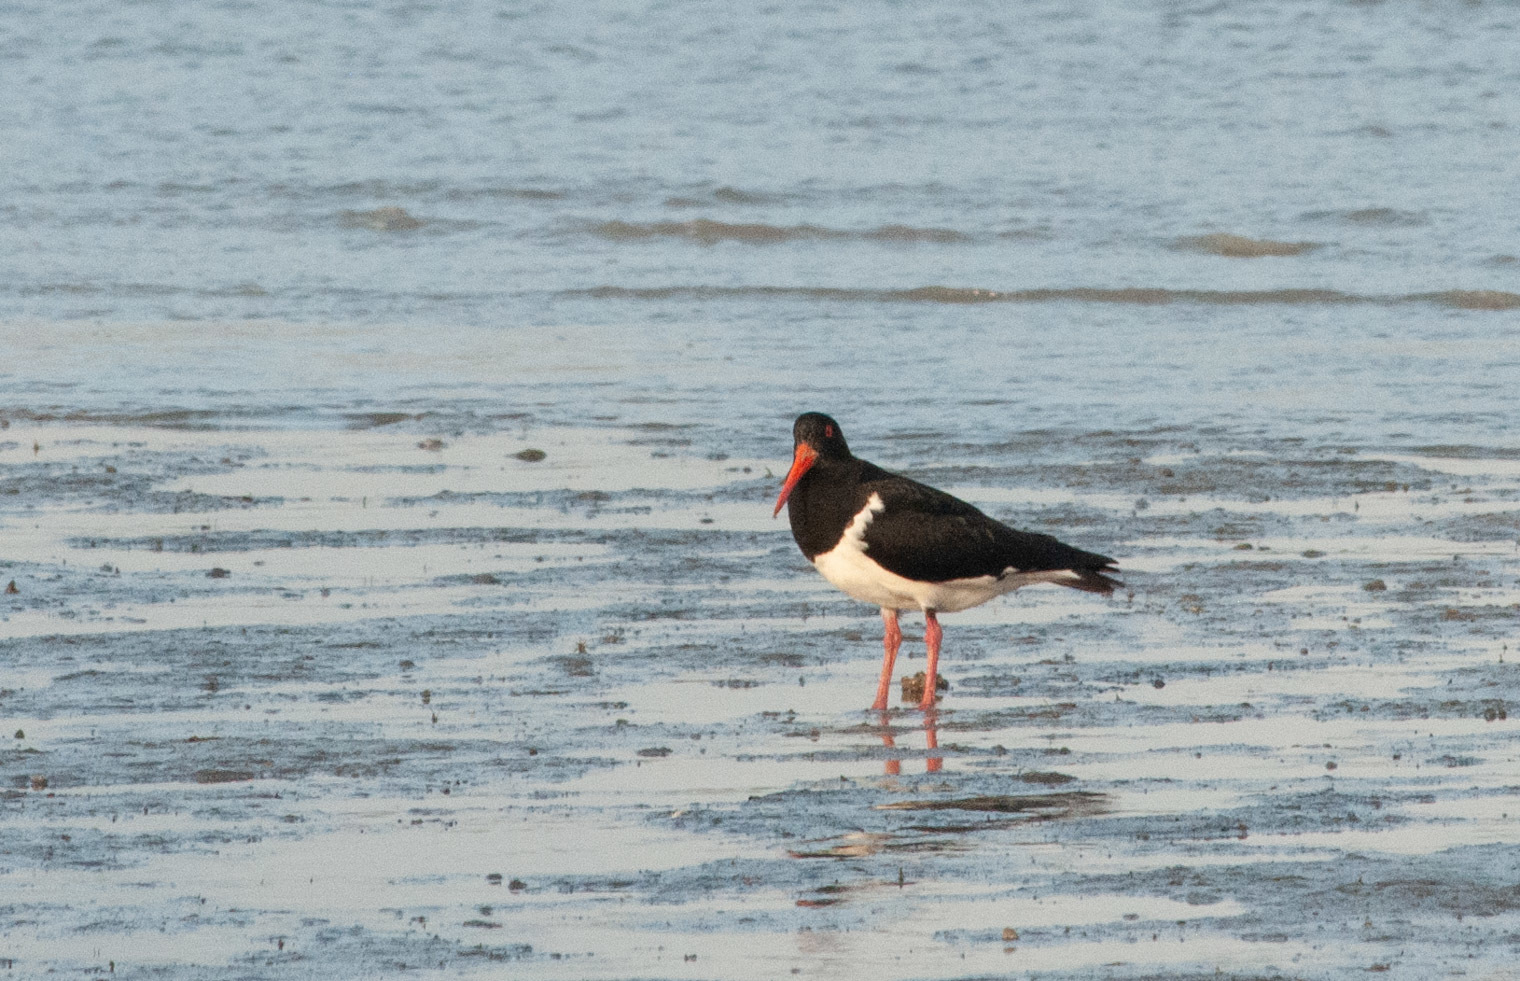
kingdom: Animalia
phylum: Chordata
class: Aves
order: Charadriiformes
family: Haematopodidae
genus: Haematopus
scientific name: Haematopus longirostris
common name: Pied oystercatcher
